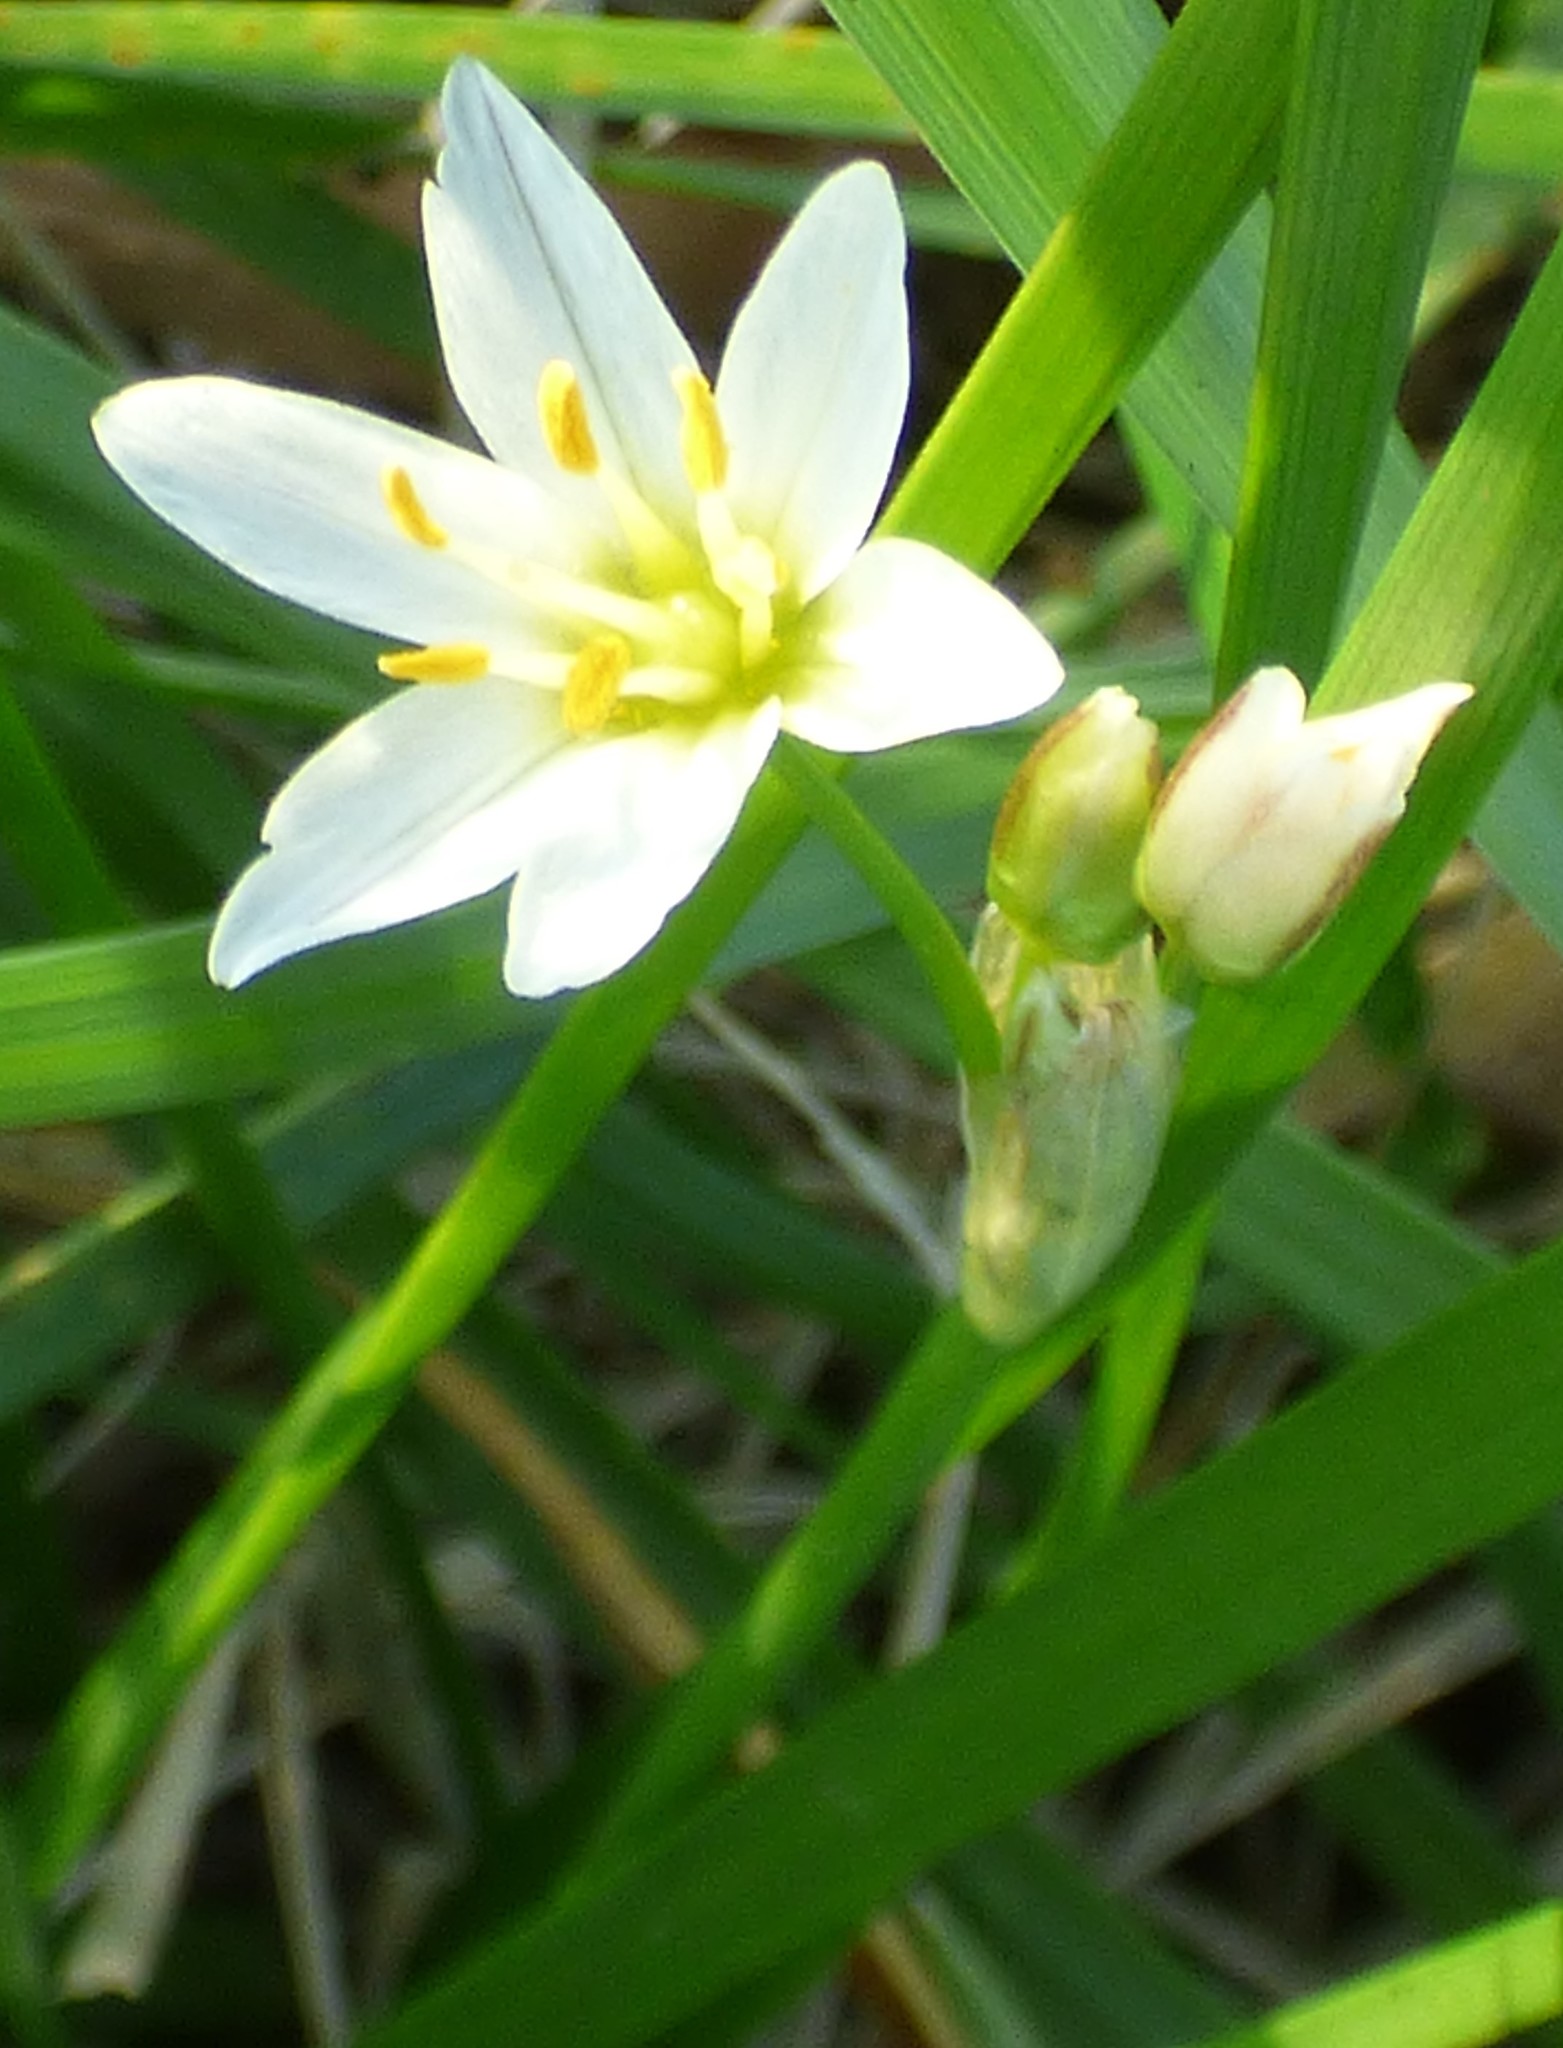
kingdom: Plantae
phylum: Tracheophyta
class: Liliopsida
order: Asparagales
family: Amaryllidaceae
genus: Nothoscordum
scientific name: Nothoscordum bivalve
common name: Crow-poison
